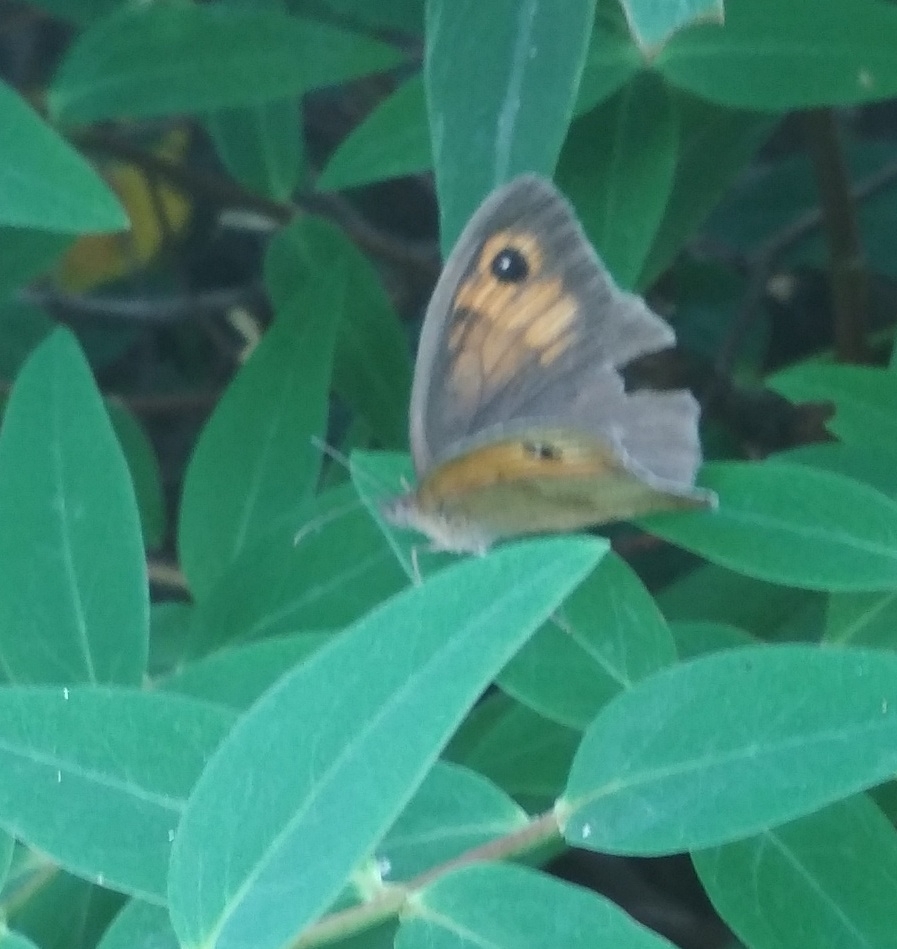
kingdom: Animalia
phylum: Arthropoda
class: Insecta
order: Lepidoptera
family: Nymphalidae
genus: Maniola
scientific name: Maniola jurtina
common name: Meadow brown
